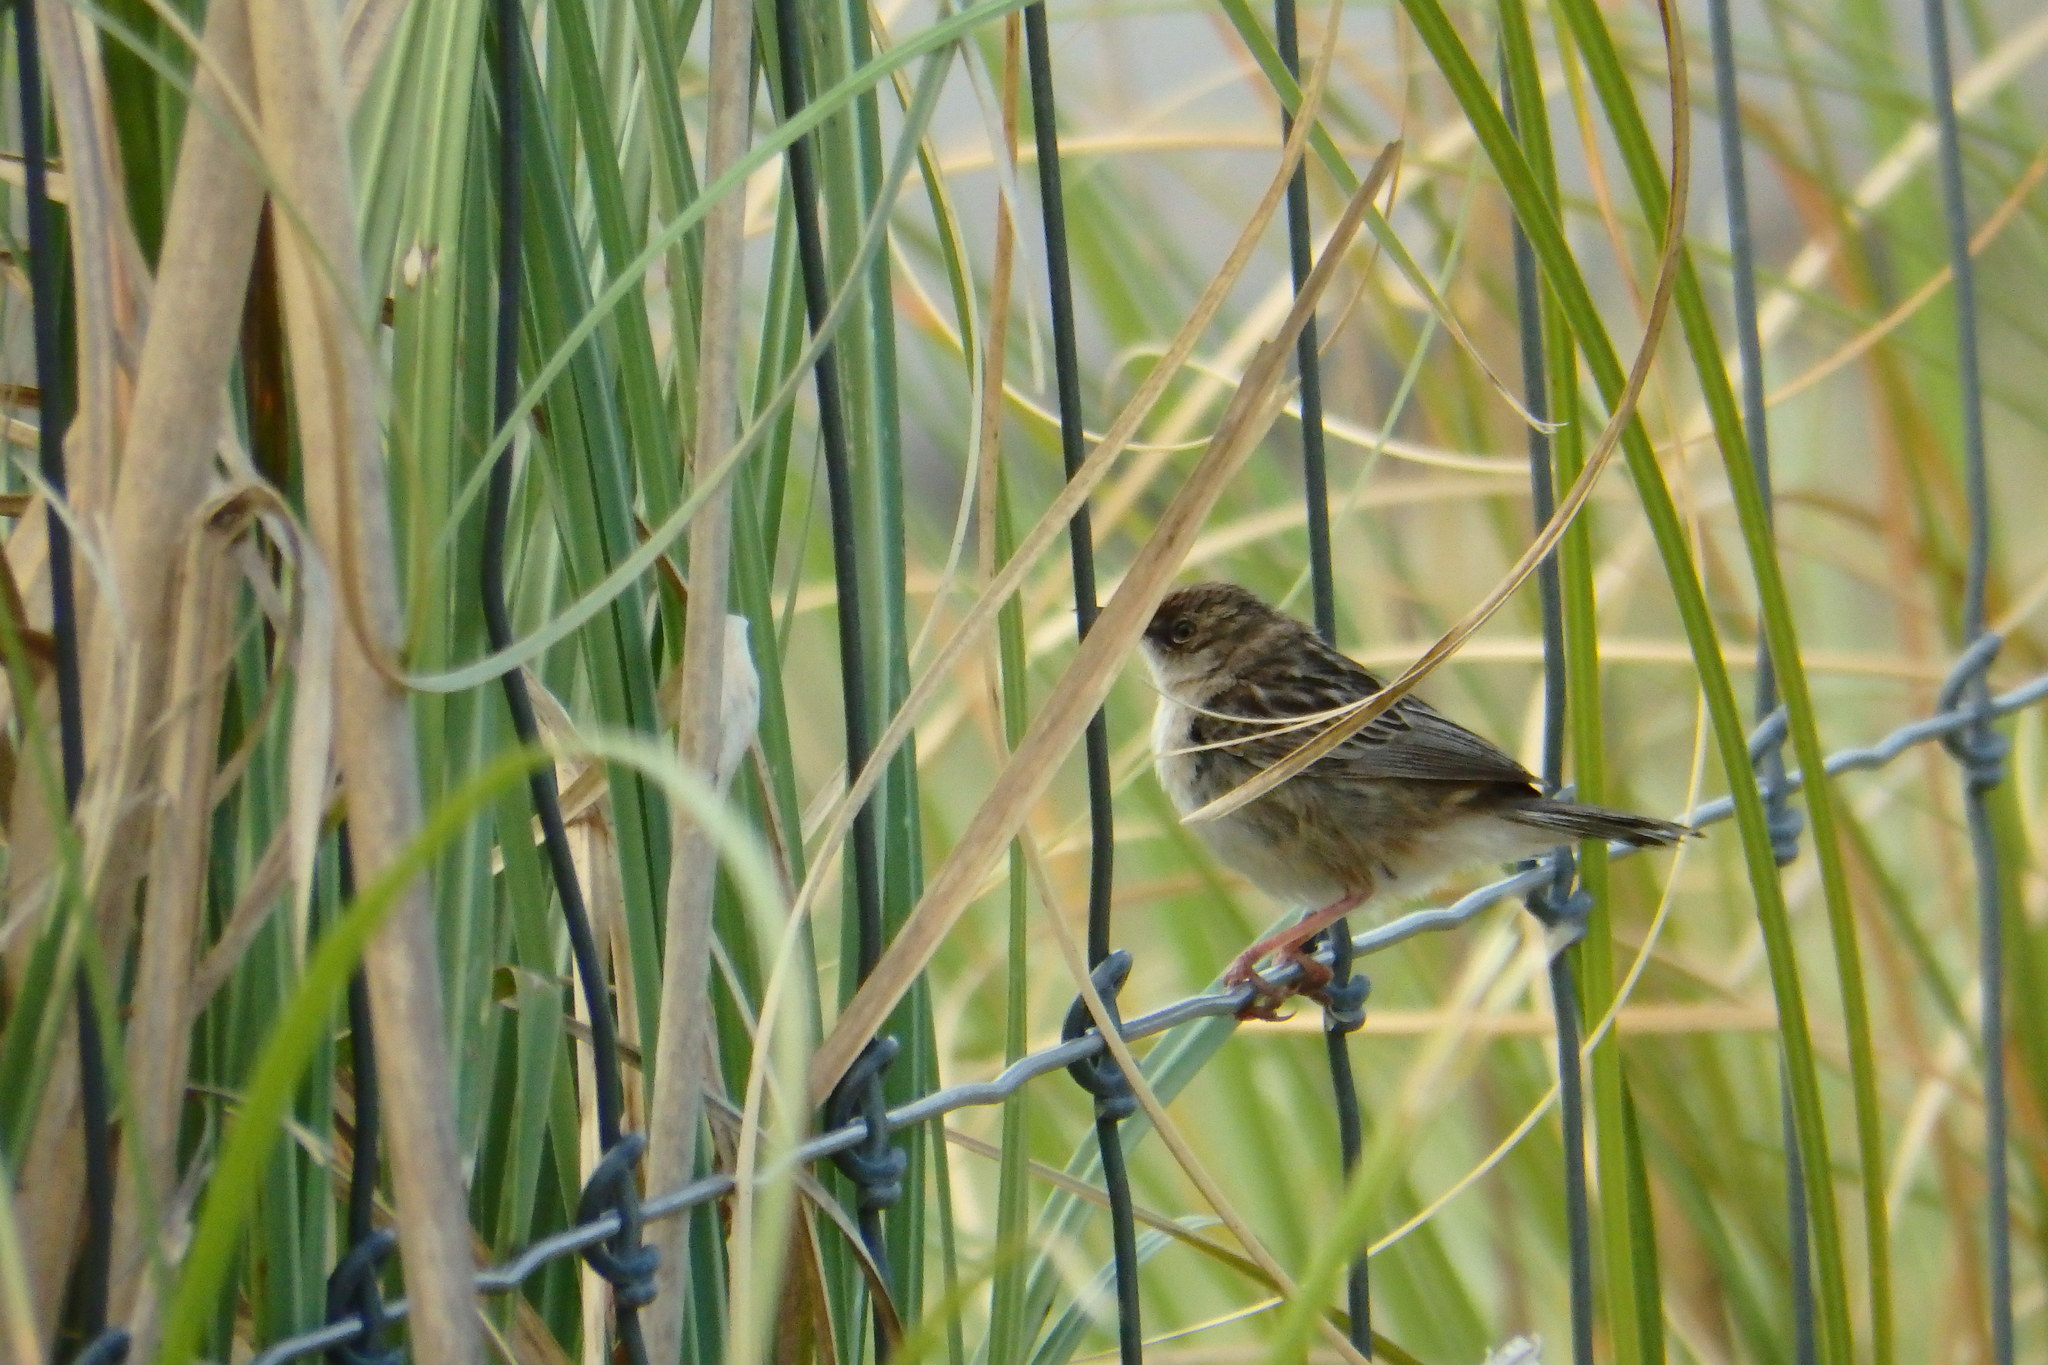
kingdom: Animalia
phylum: Chordata
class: Aves
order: Passeriformes
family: Cisticolidae
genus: Cisticola
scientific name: Cisticola juncidis
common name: Zitting cisticola
